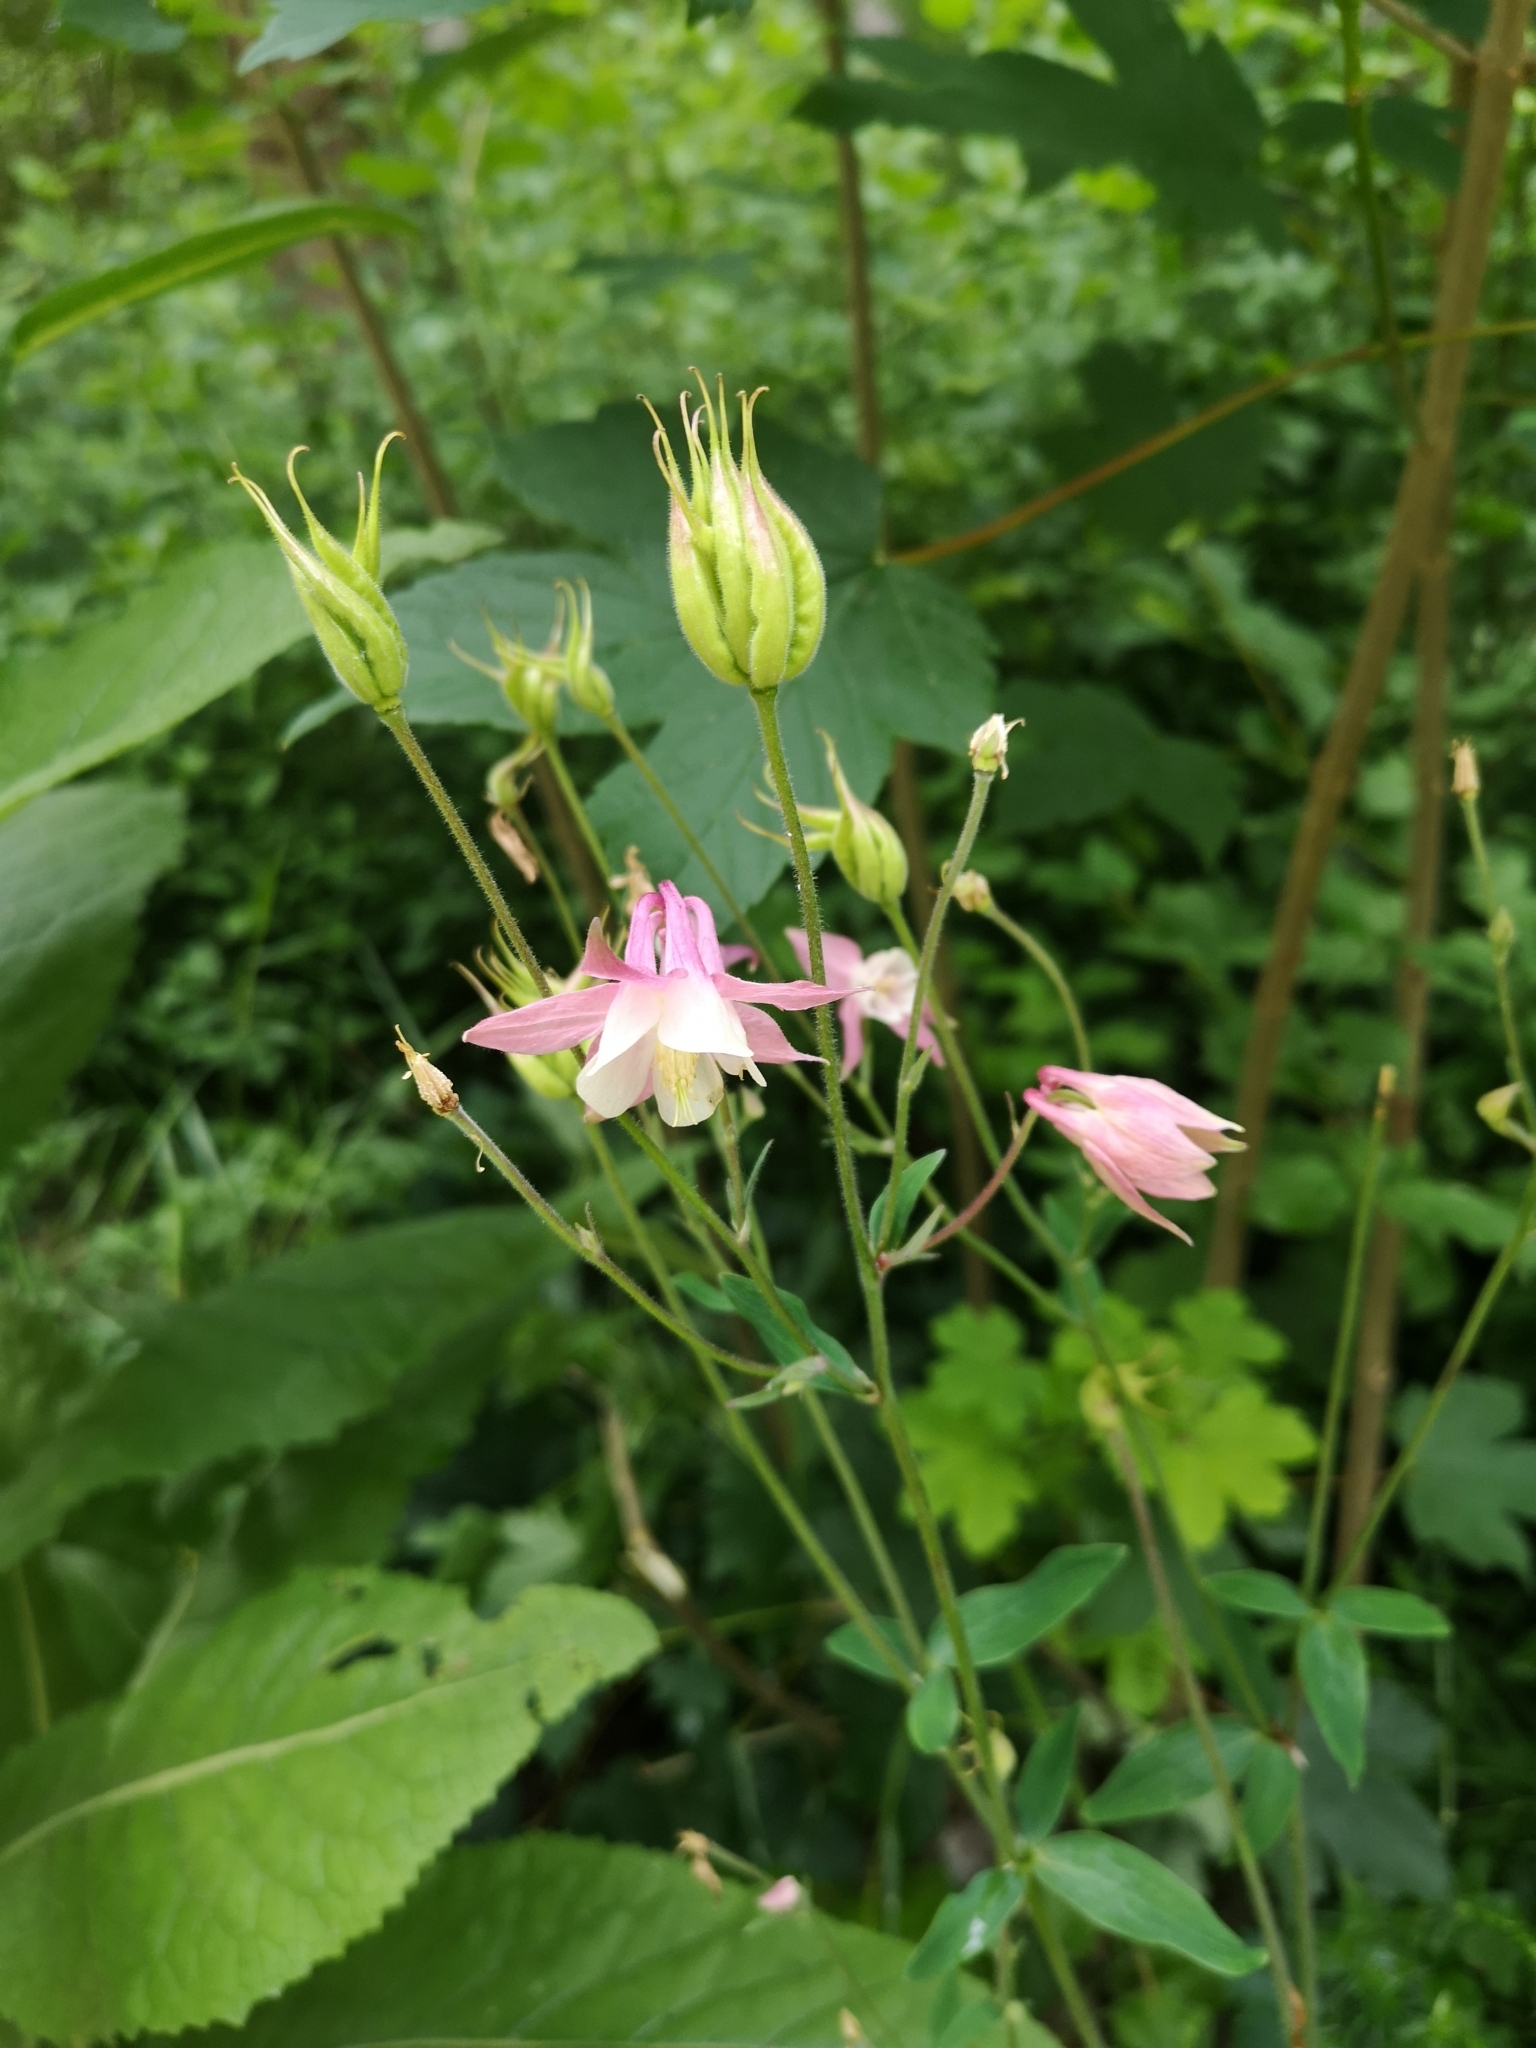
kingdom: Plantae
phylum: Tracheophyta
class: Magnoliopsida
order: Ranunculales
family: Ranunculaceae
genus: Aquilegia
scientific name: Aquilegia vulgaris
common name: Columbine
